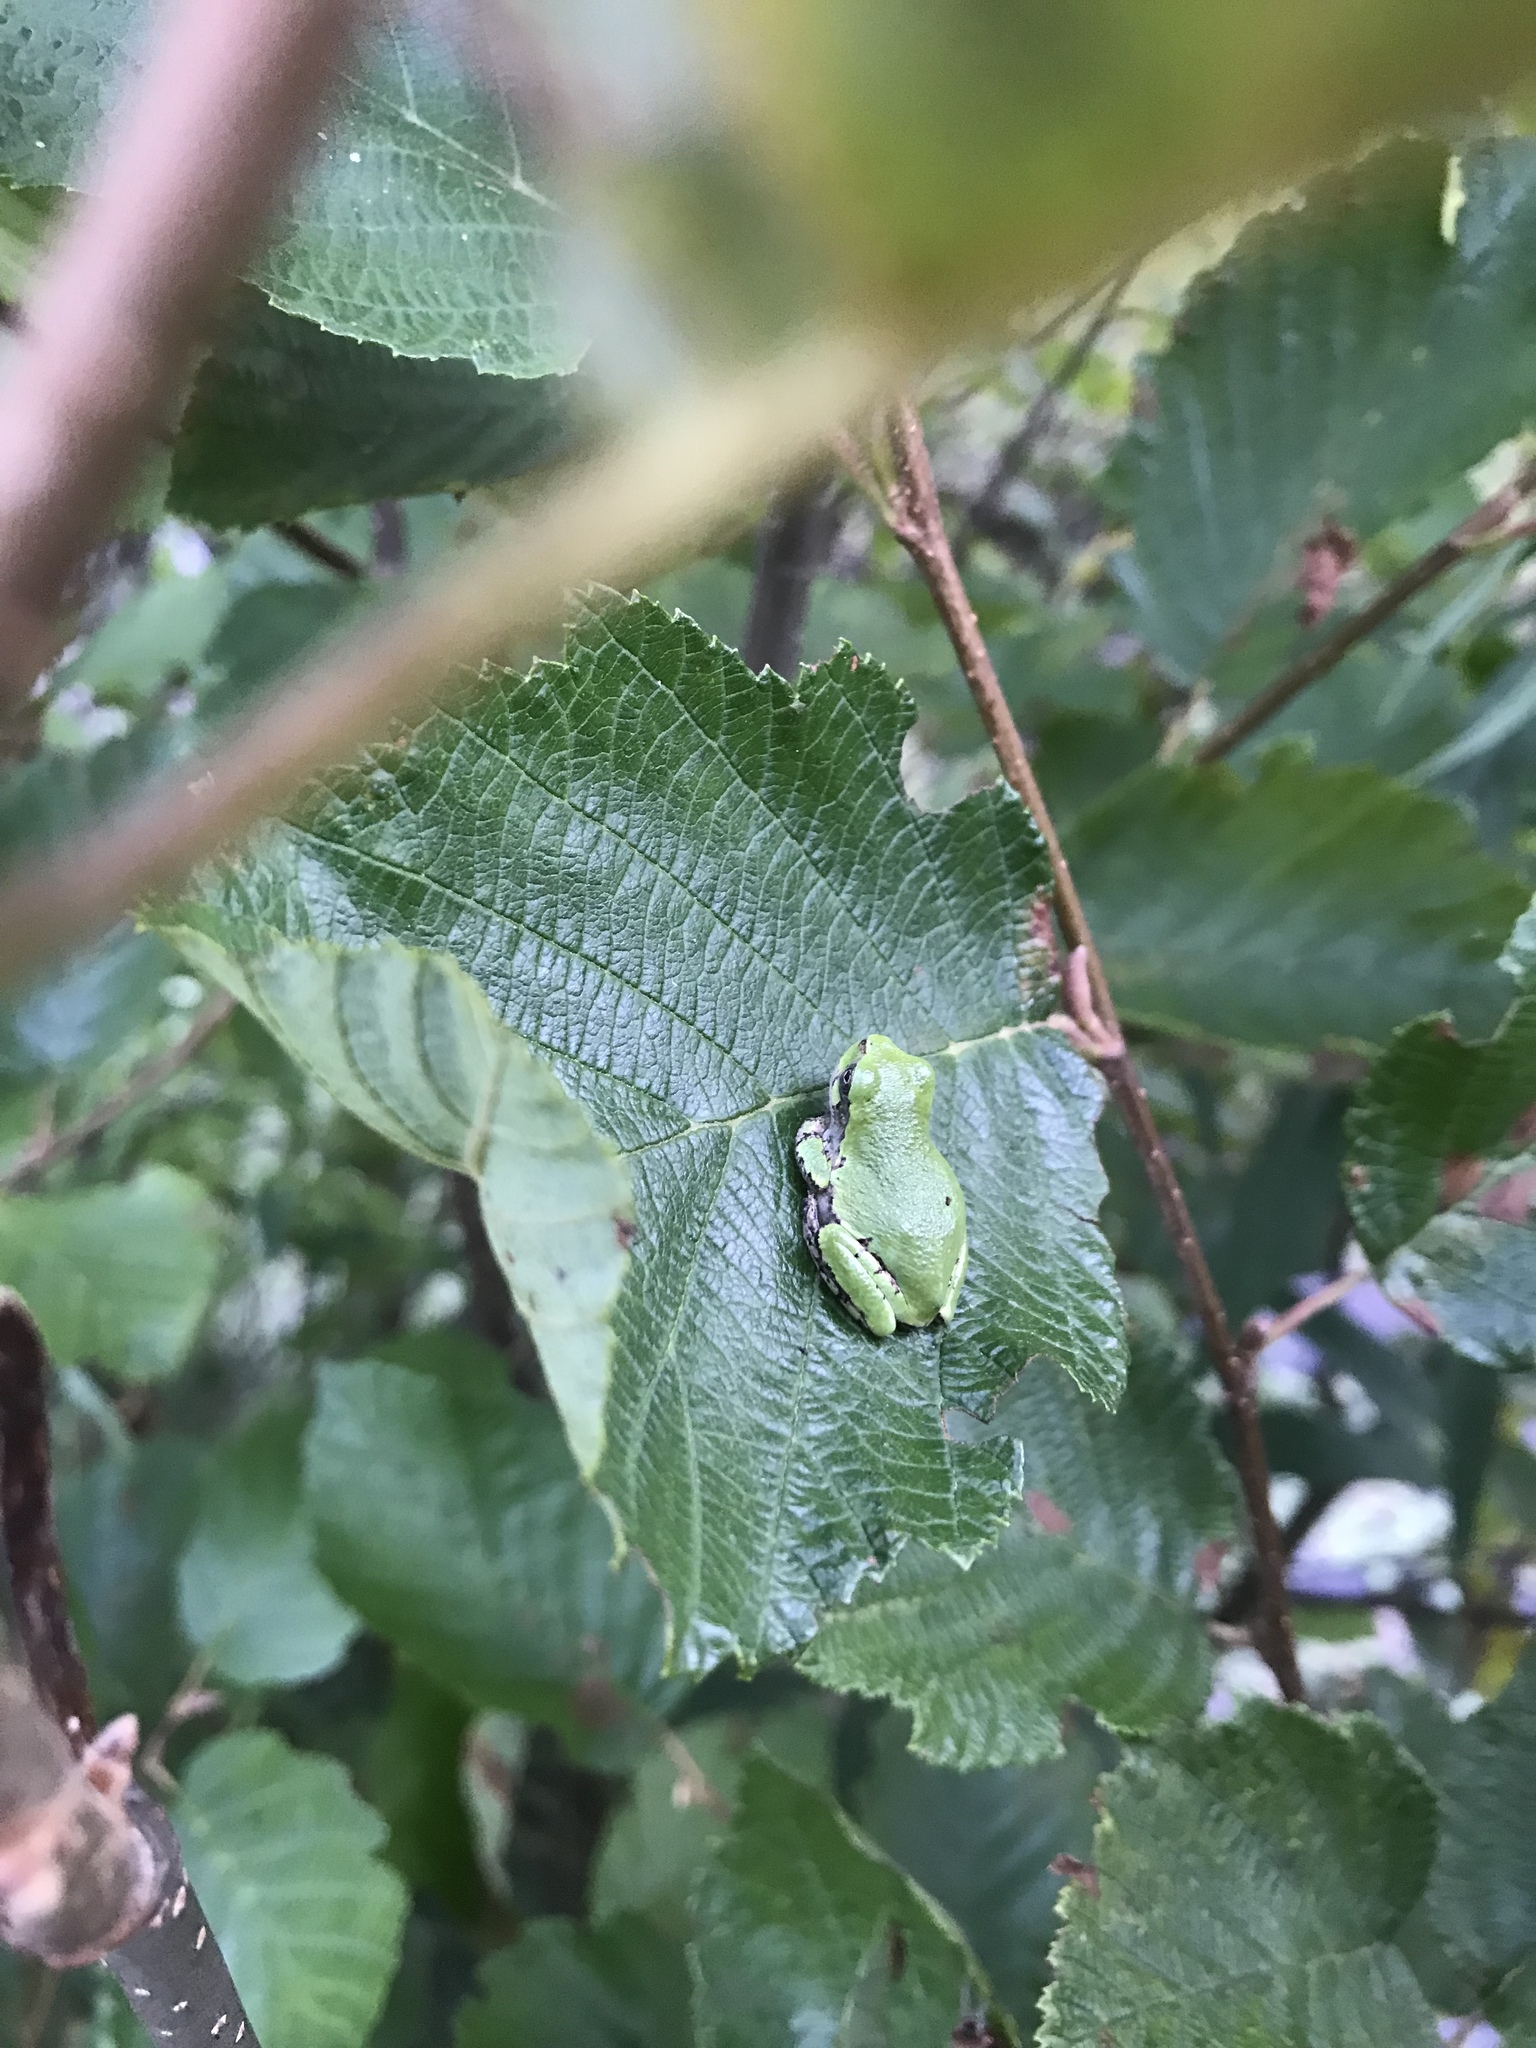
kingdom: Animalia
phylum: Chordata
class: Amphibia
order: Anura
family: Hylidae
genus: Dryophytes
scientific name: Dryophytes versicolor
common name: Gray treefrog
